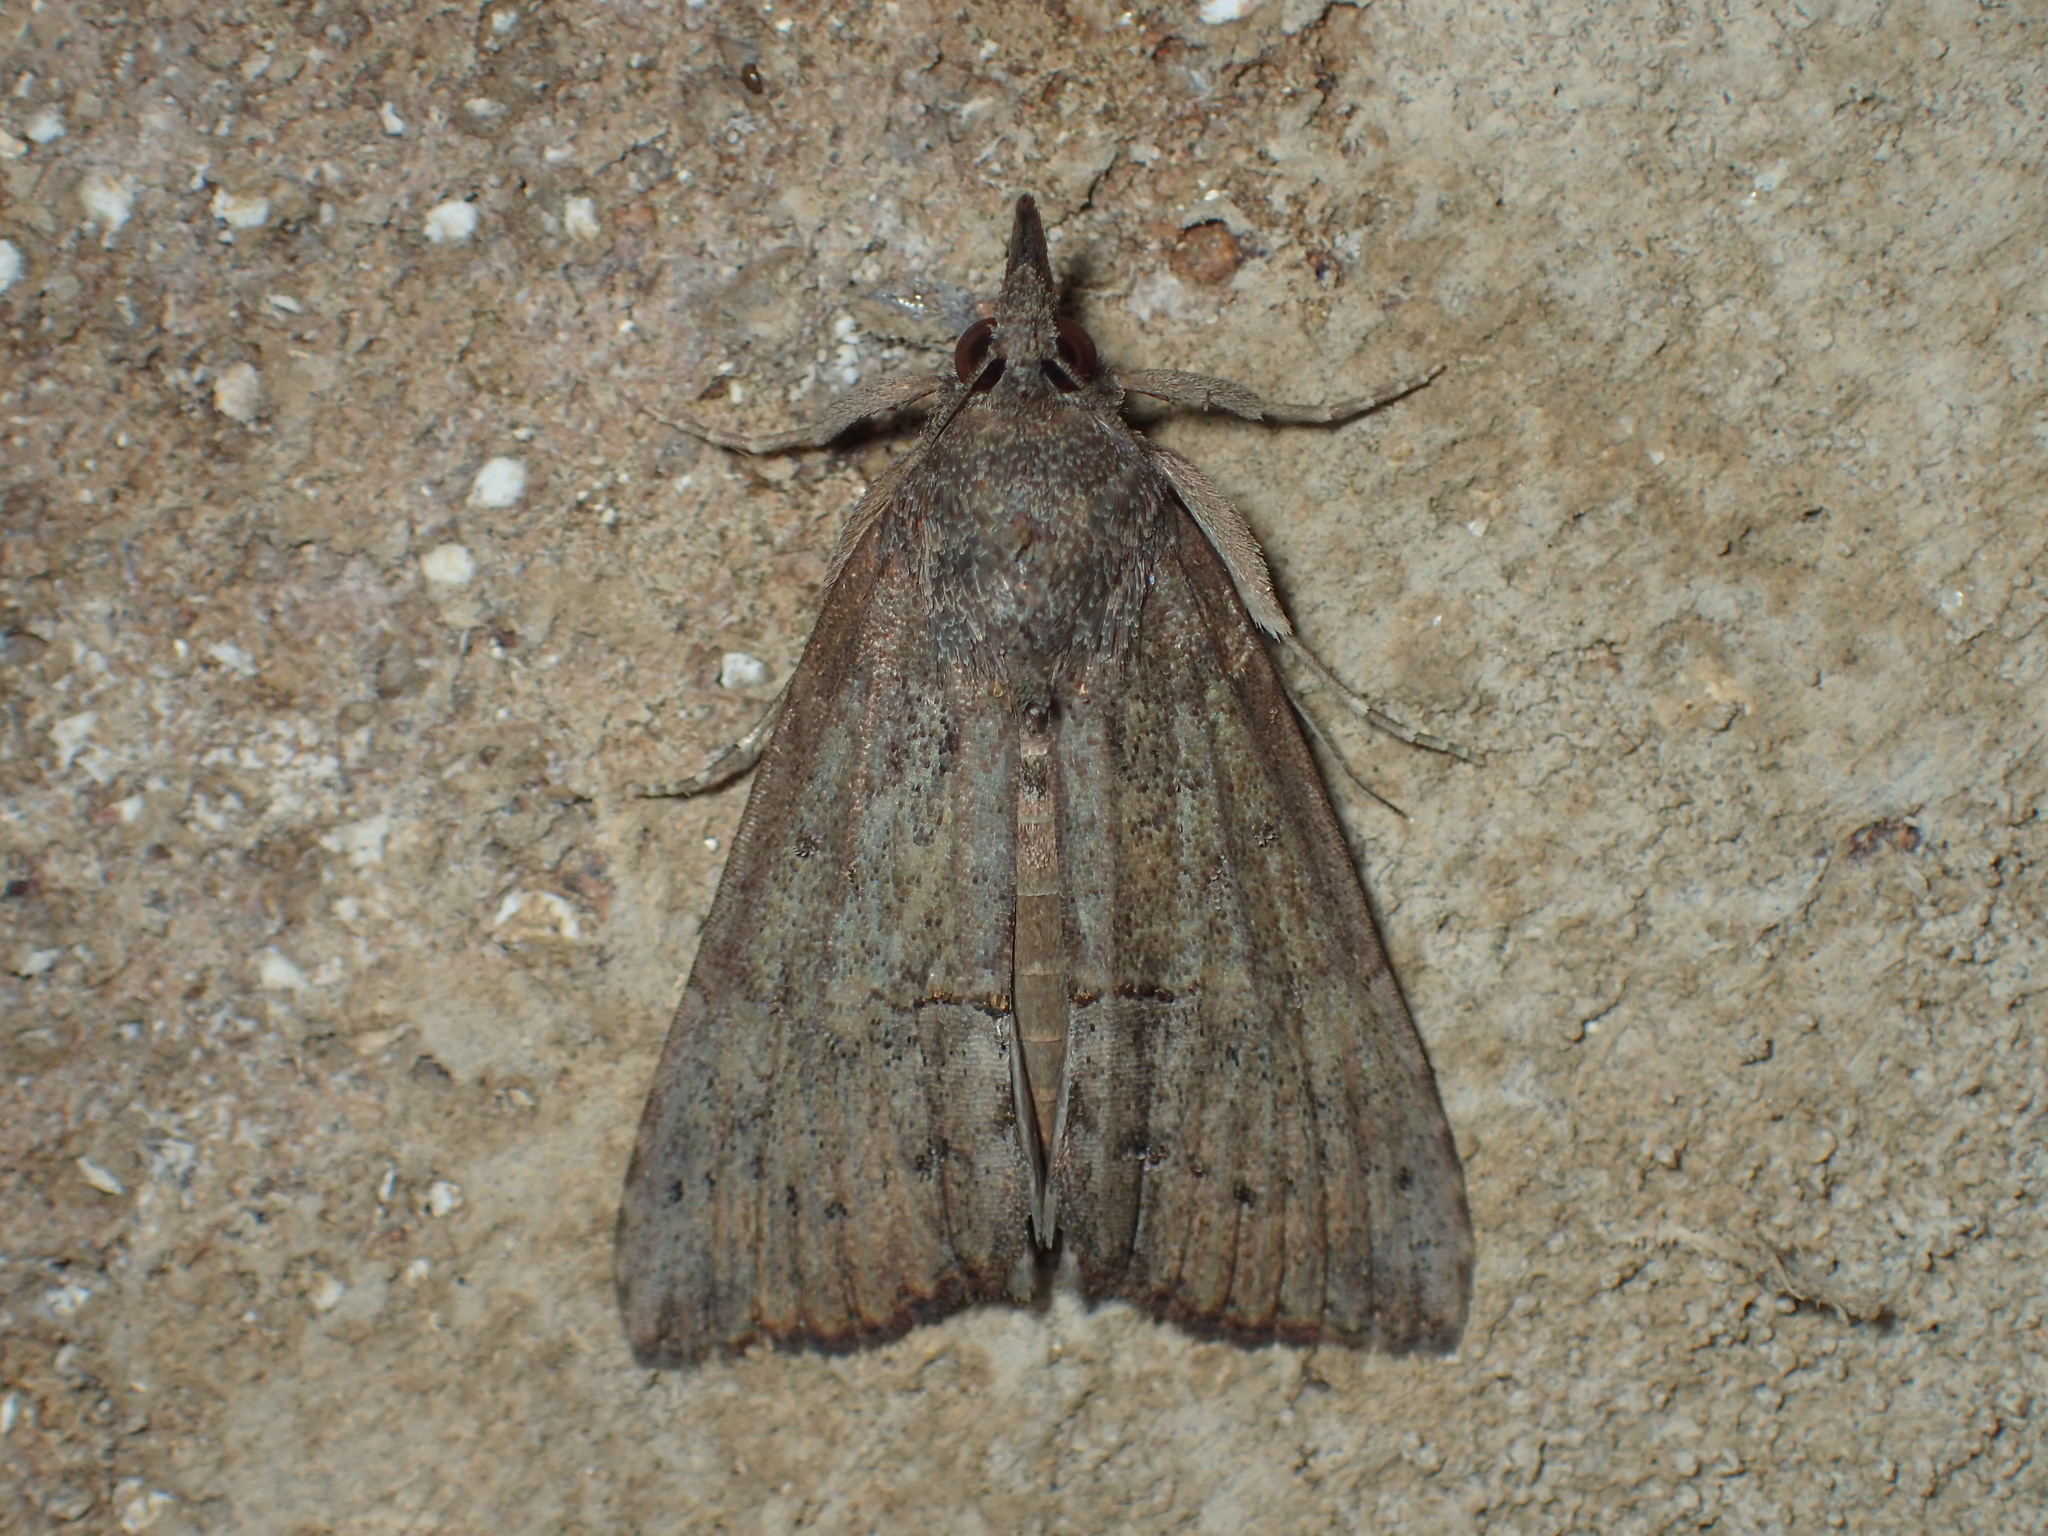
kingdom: Animalia
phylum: Arthropoda
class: Insecta
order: Lepidoptera
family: Erebidae
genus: Hypena
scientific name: Hypena scabra
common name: Green cloverworm
